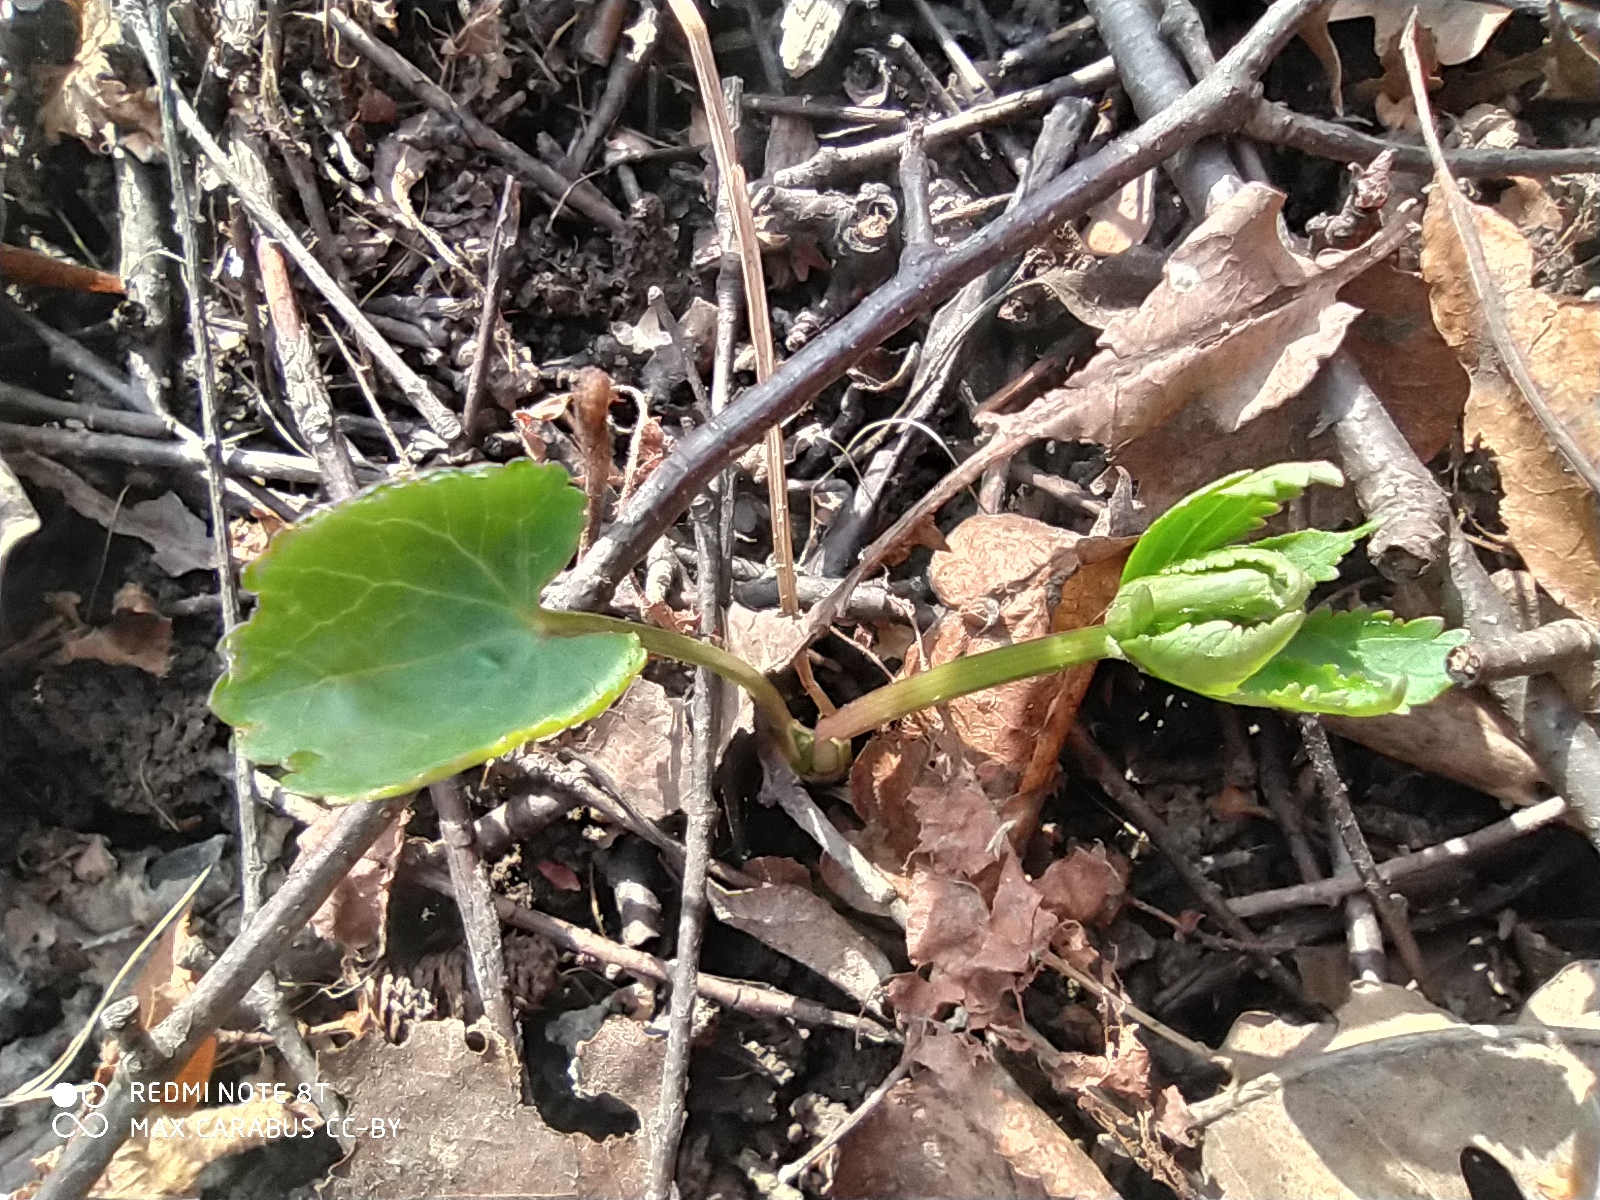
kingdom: Plantae
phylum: Tracheophyta
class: Magnoliopsida
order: Ranunculales
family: Ranunculaceae
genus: Ranunculus
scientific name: Ranunculus cassubicus
